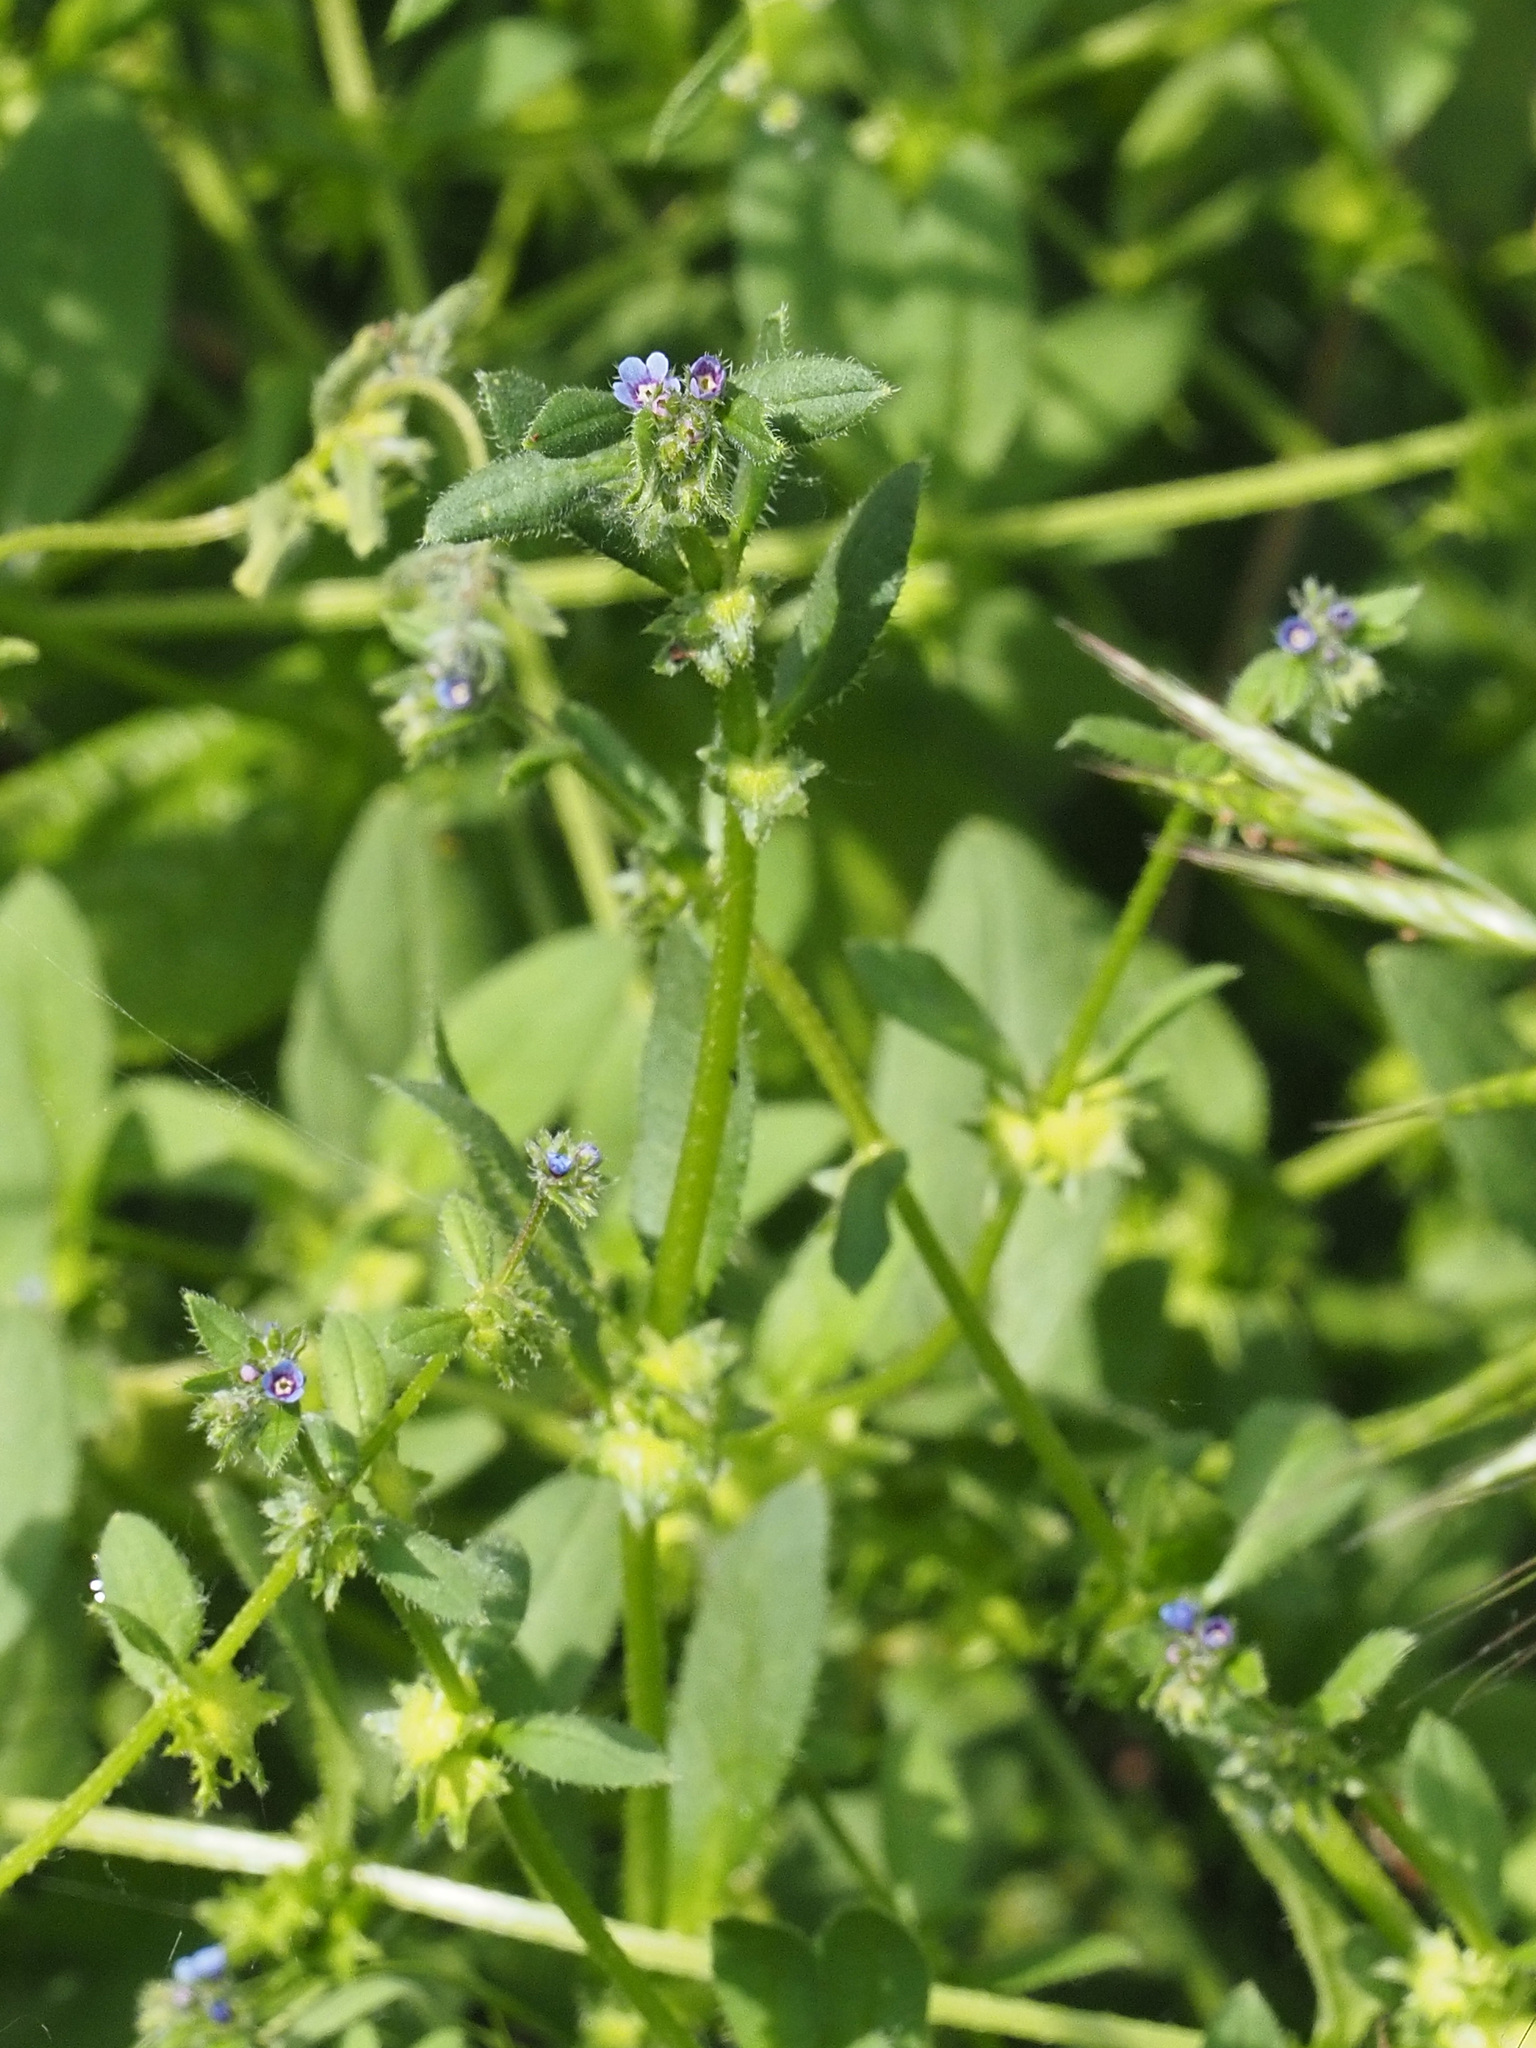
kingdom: Plantae
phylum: Tracheophyta
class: Magnoliopsida
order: Boraginales
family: Boraginaceae
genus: Asperugo
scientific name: Asperugo procumbens
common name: Madwort
